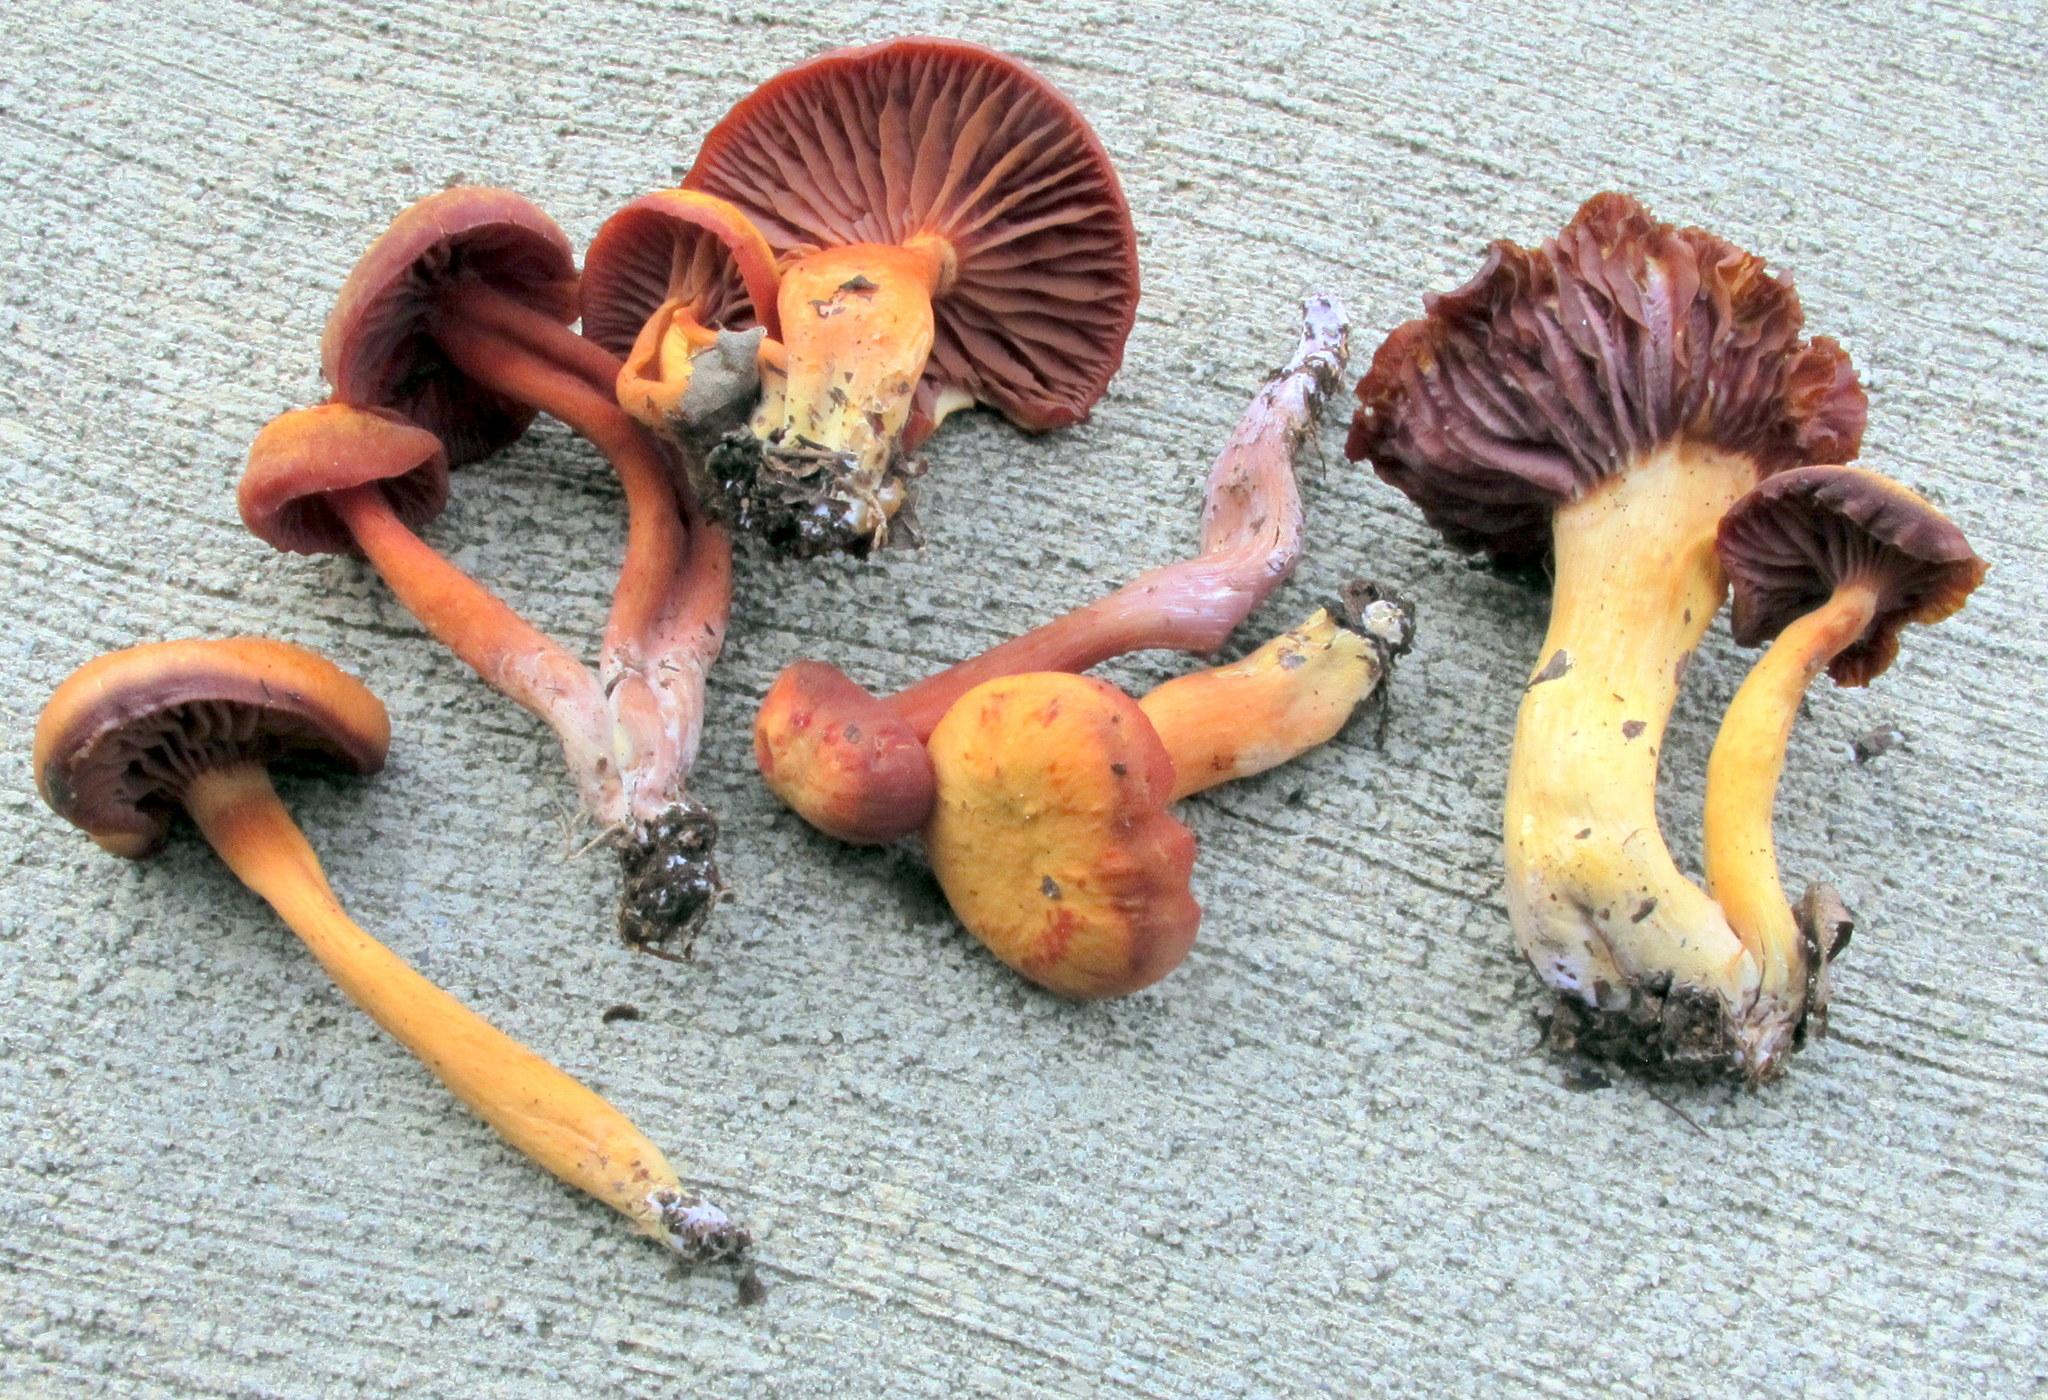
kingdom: Fungi
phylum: Basidiomycota
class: Agaricomycetes
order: Agaricales
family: Hygrophoraceae
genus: Hygrocybe
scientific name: Hygrocybe purpureofolia
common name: Purple-gilled waxy cap
